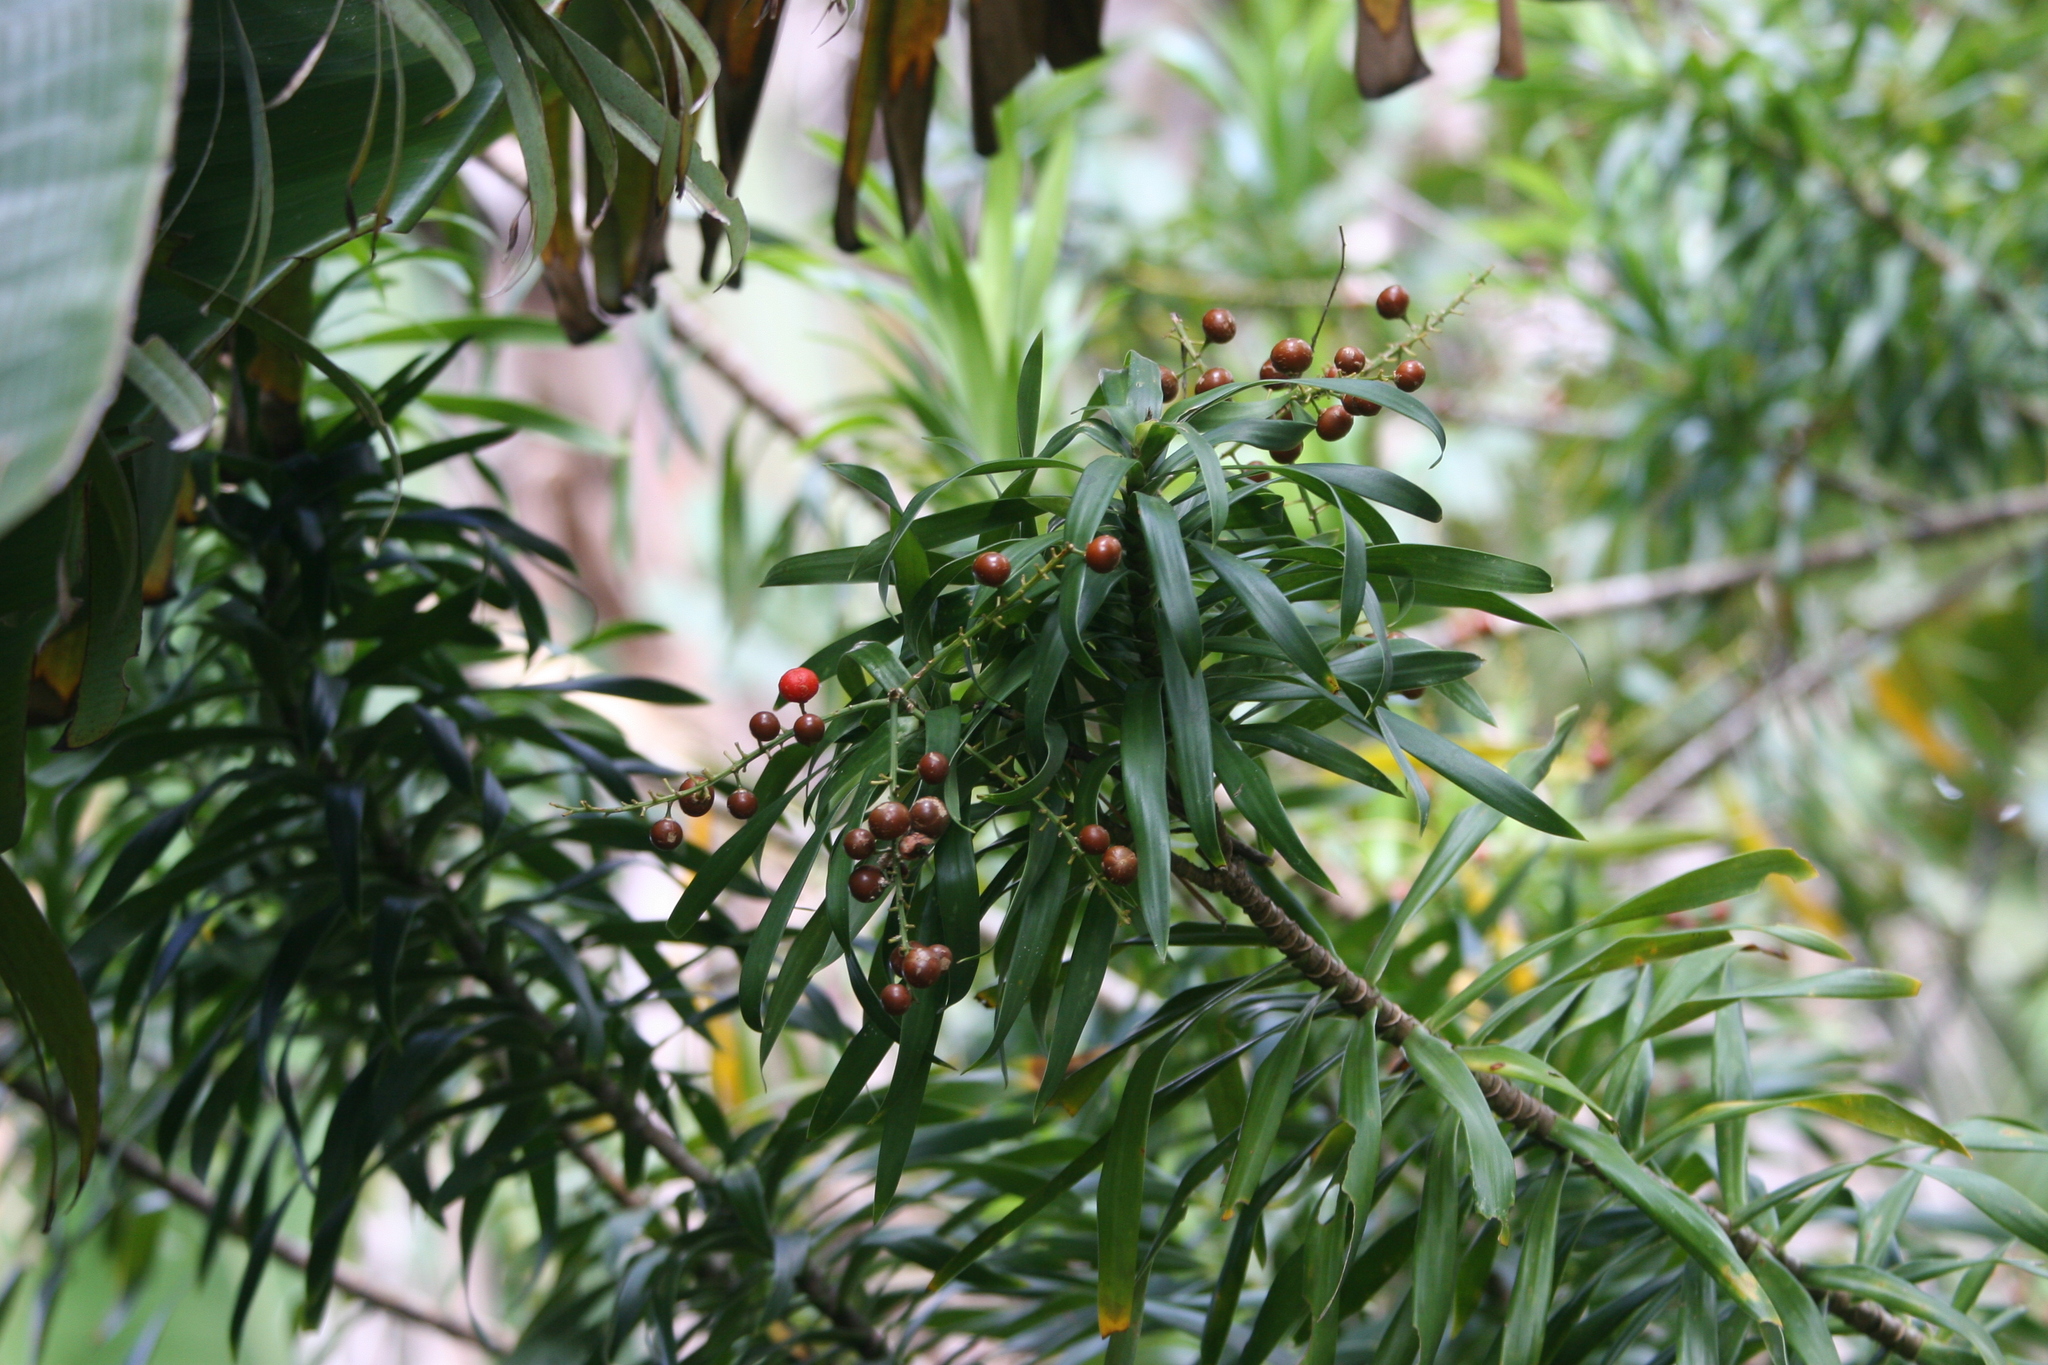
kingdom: Plantae
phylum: Tracheophyta
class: Liliopsida
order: Asparagales
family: Asparagaceae
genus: Dracaena
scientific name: Dracaena reflexa
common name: Song-of-india
